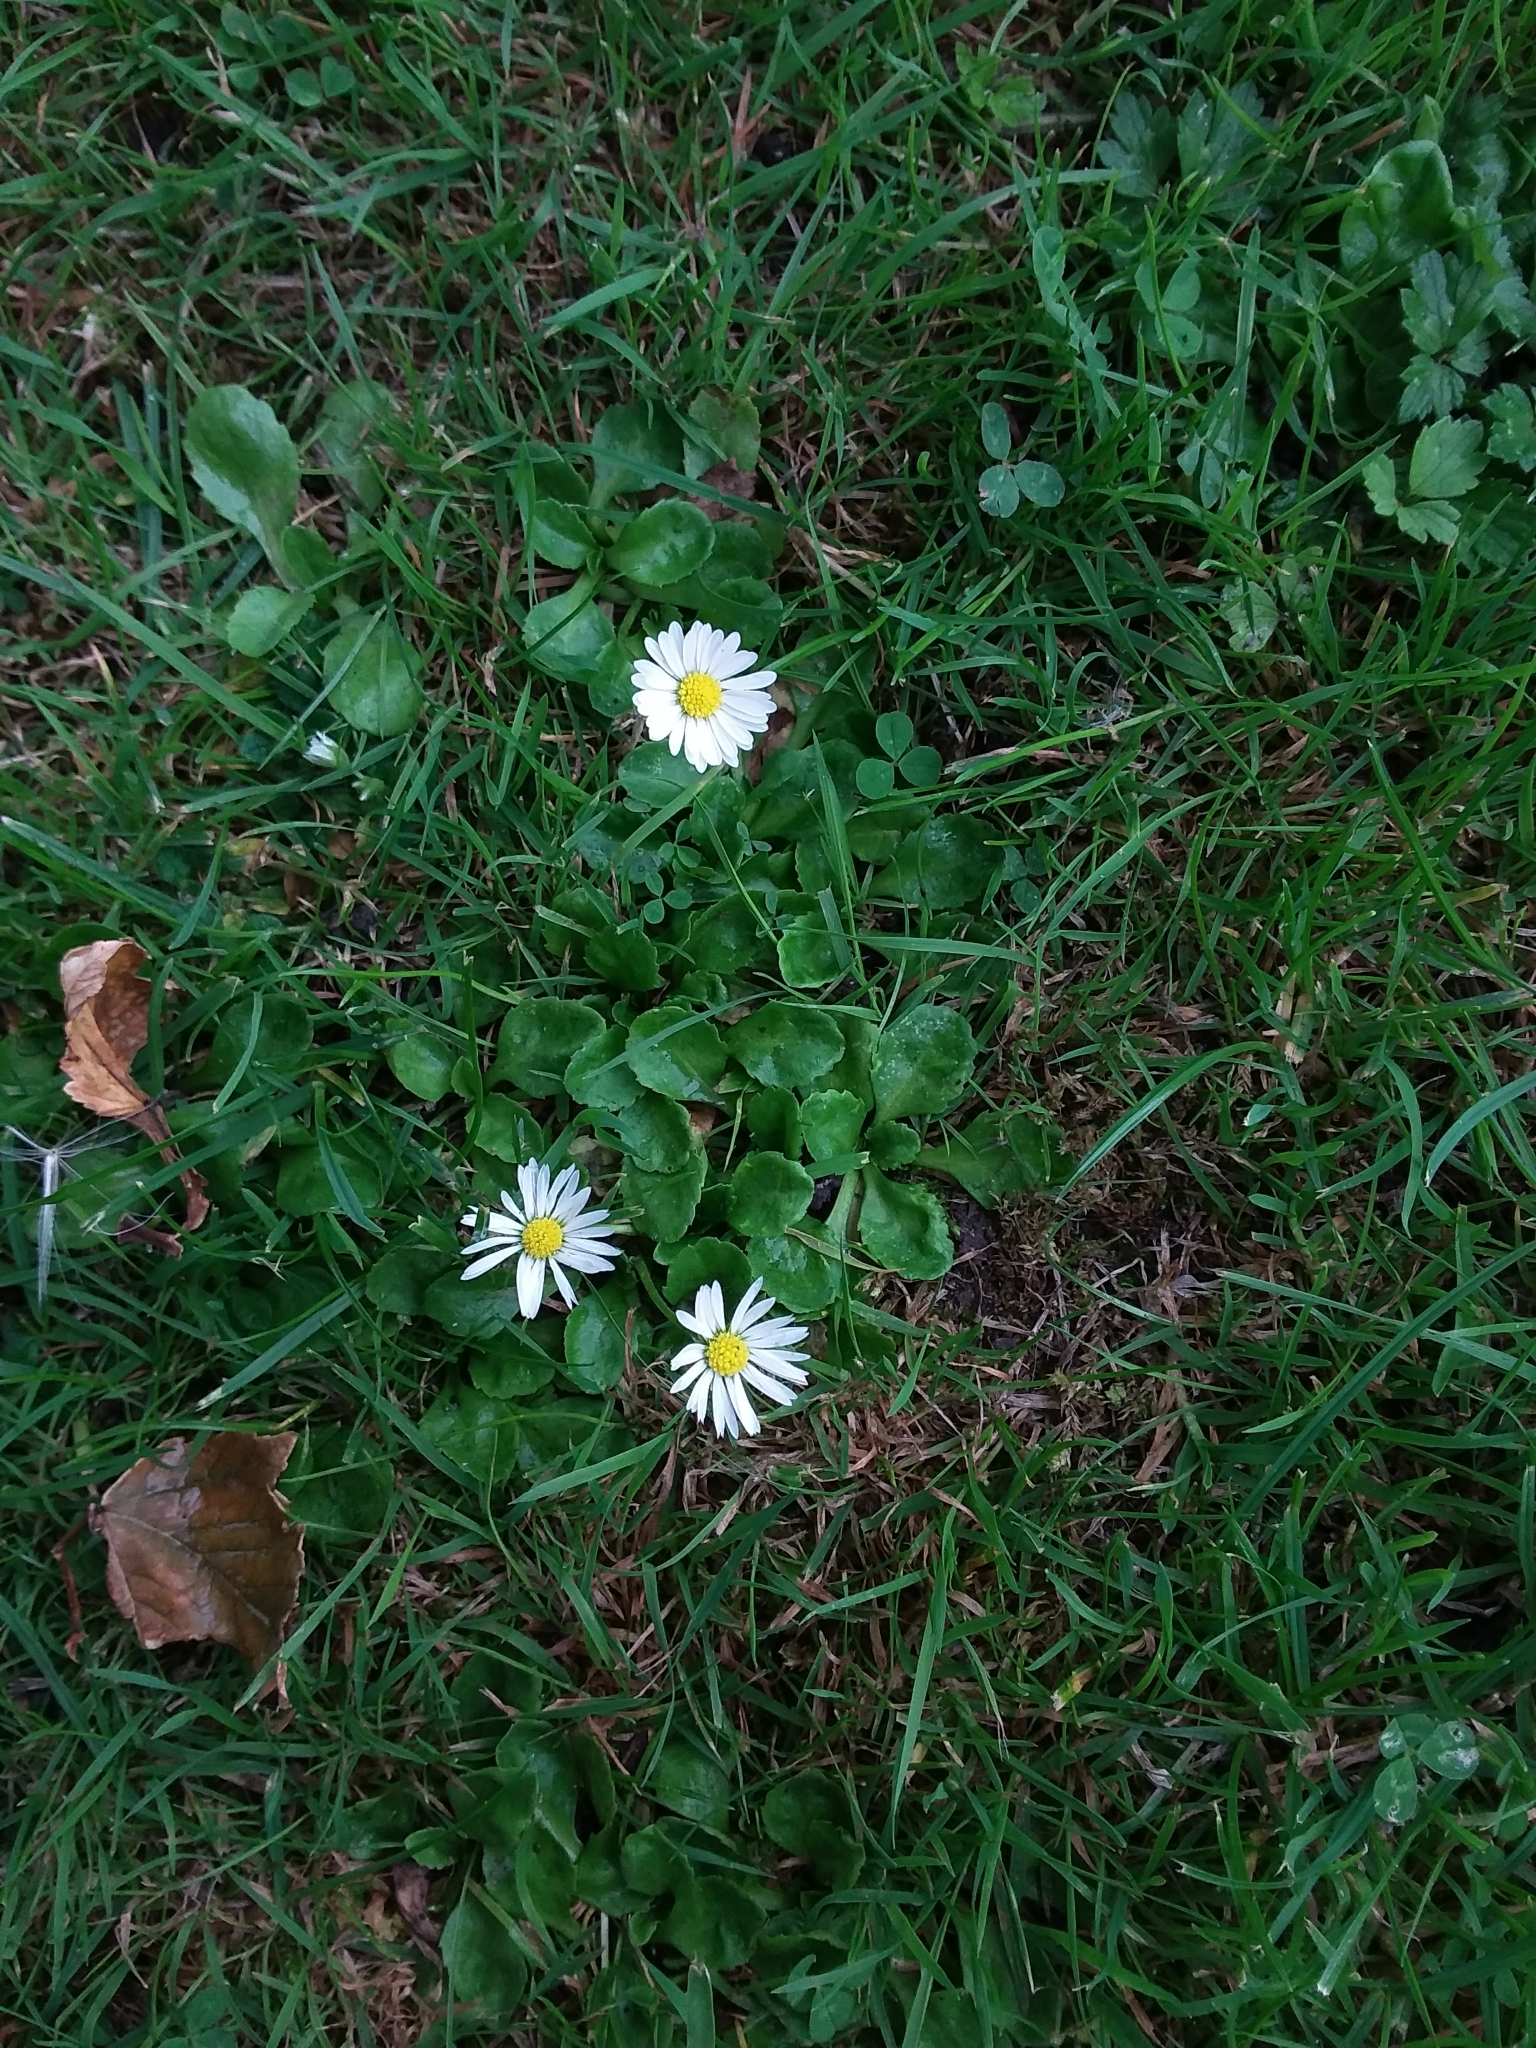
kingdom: Plantae
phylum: Tracheophyta
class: Magnoliopsida
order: Asterales
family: Asteraceae
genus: Bellis
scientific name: Bellis perennis
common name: Lawndaisy
